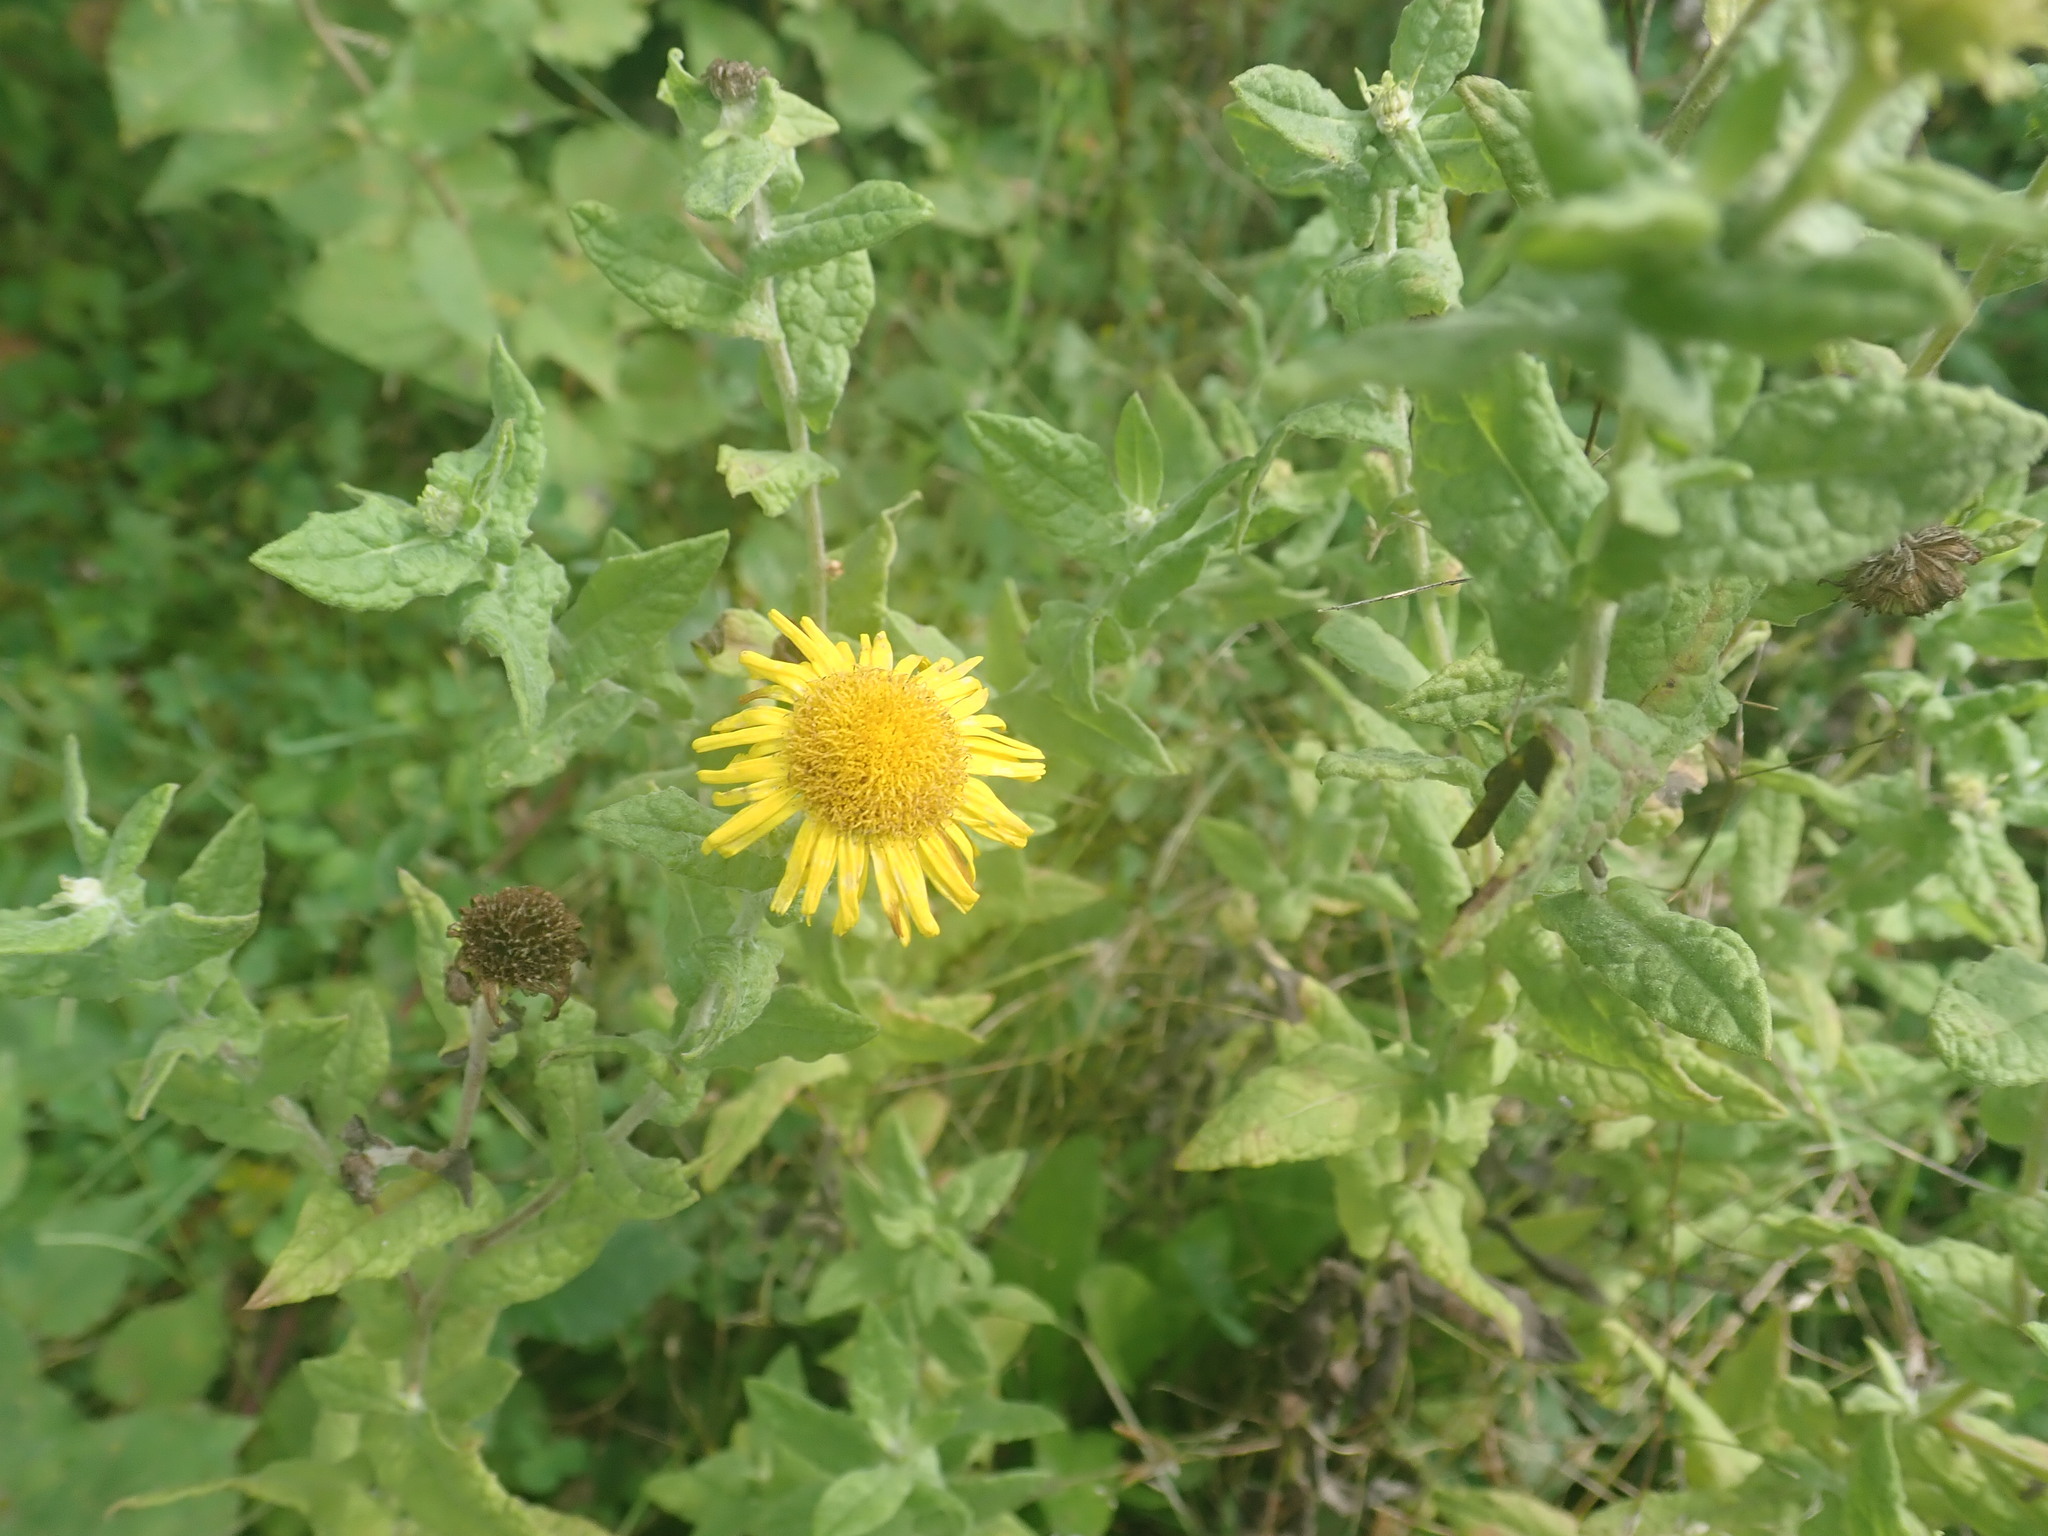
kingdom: Plantae
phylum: Tracheophyta
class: Magnoliopsida
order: Asterales
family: Asteraceae
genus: Pulicaria
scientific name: Pulicaria dysenterica
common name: Common fleabane
